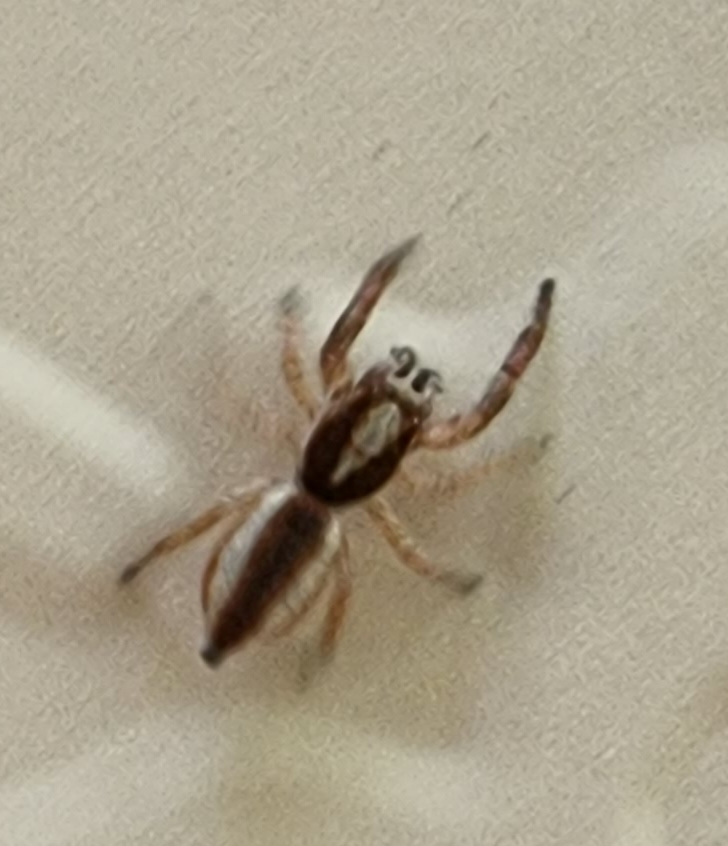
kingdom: Animalia
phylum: Arthropoda
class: Arachnida
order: Araneae
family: Salticidae
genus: Rudakius
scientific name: Rudakius cinctus
